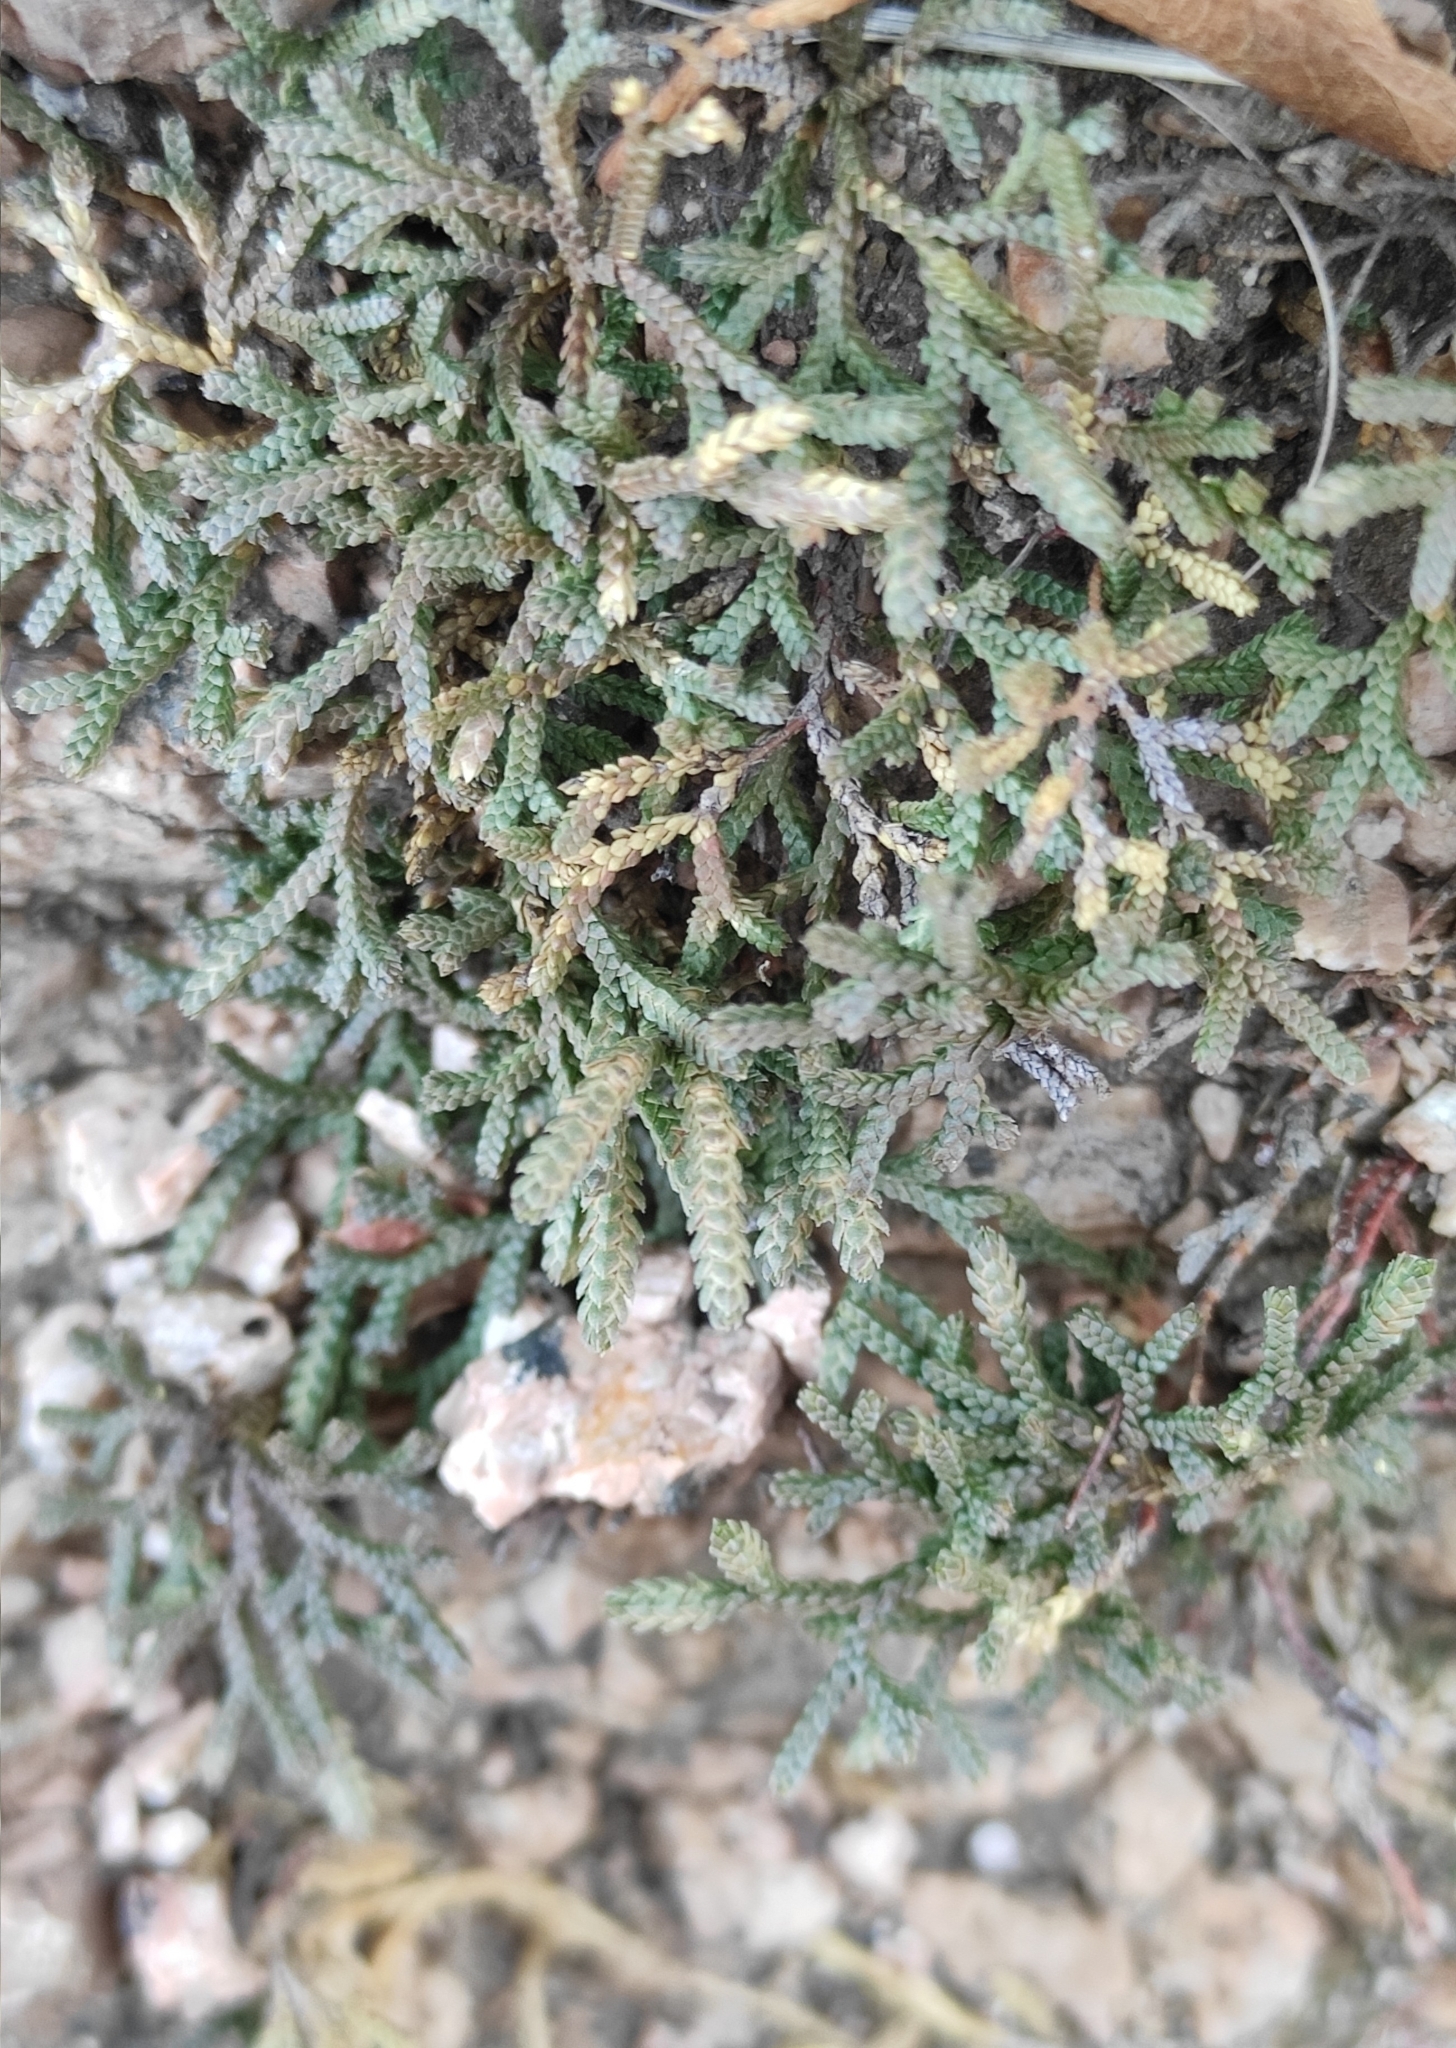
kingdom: Plantae
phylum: Tracheophyta
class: Lycopodiopsida
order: Selaginellales
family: Selaginellaceae
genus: Selaginella
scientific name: Selaginella sanguinolenta
